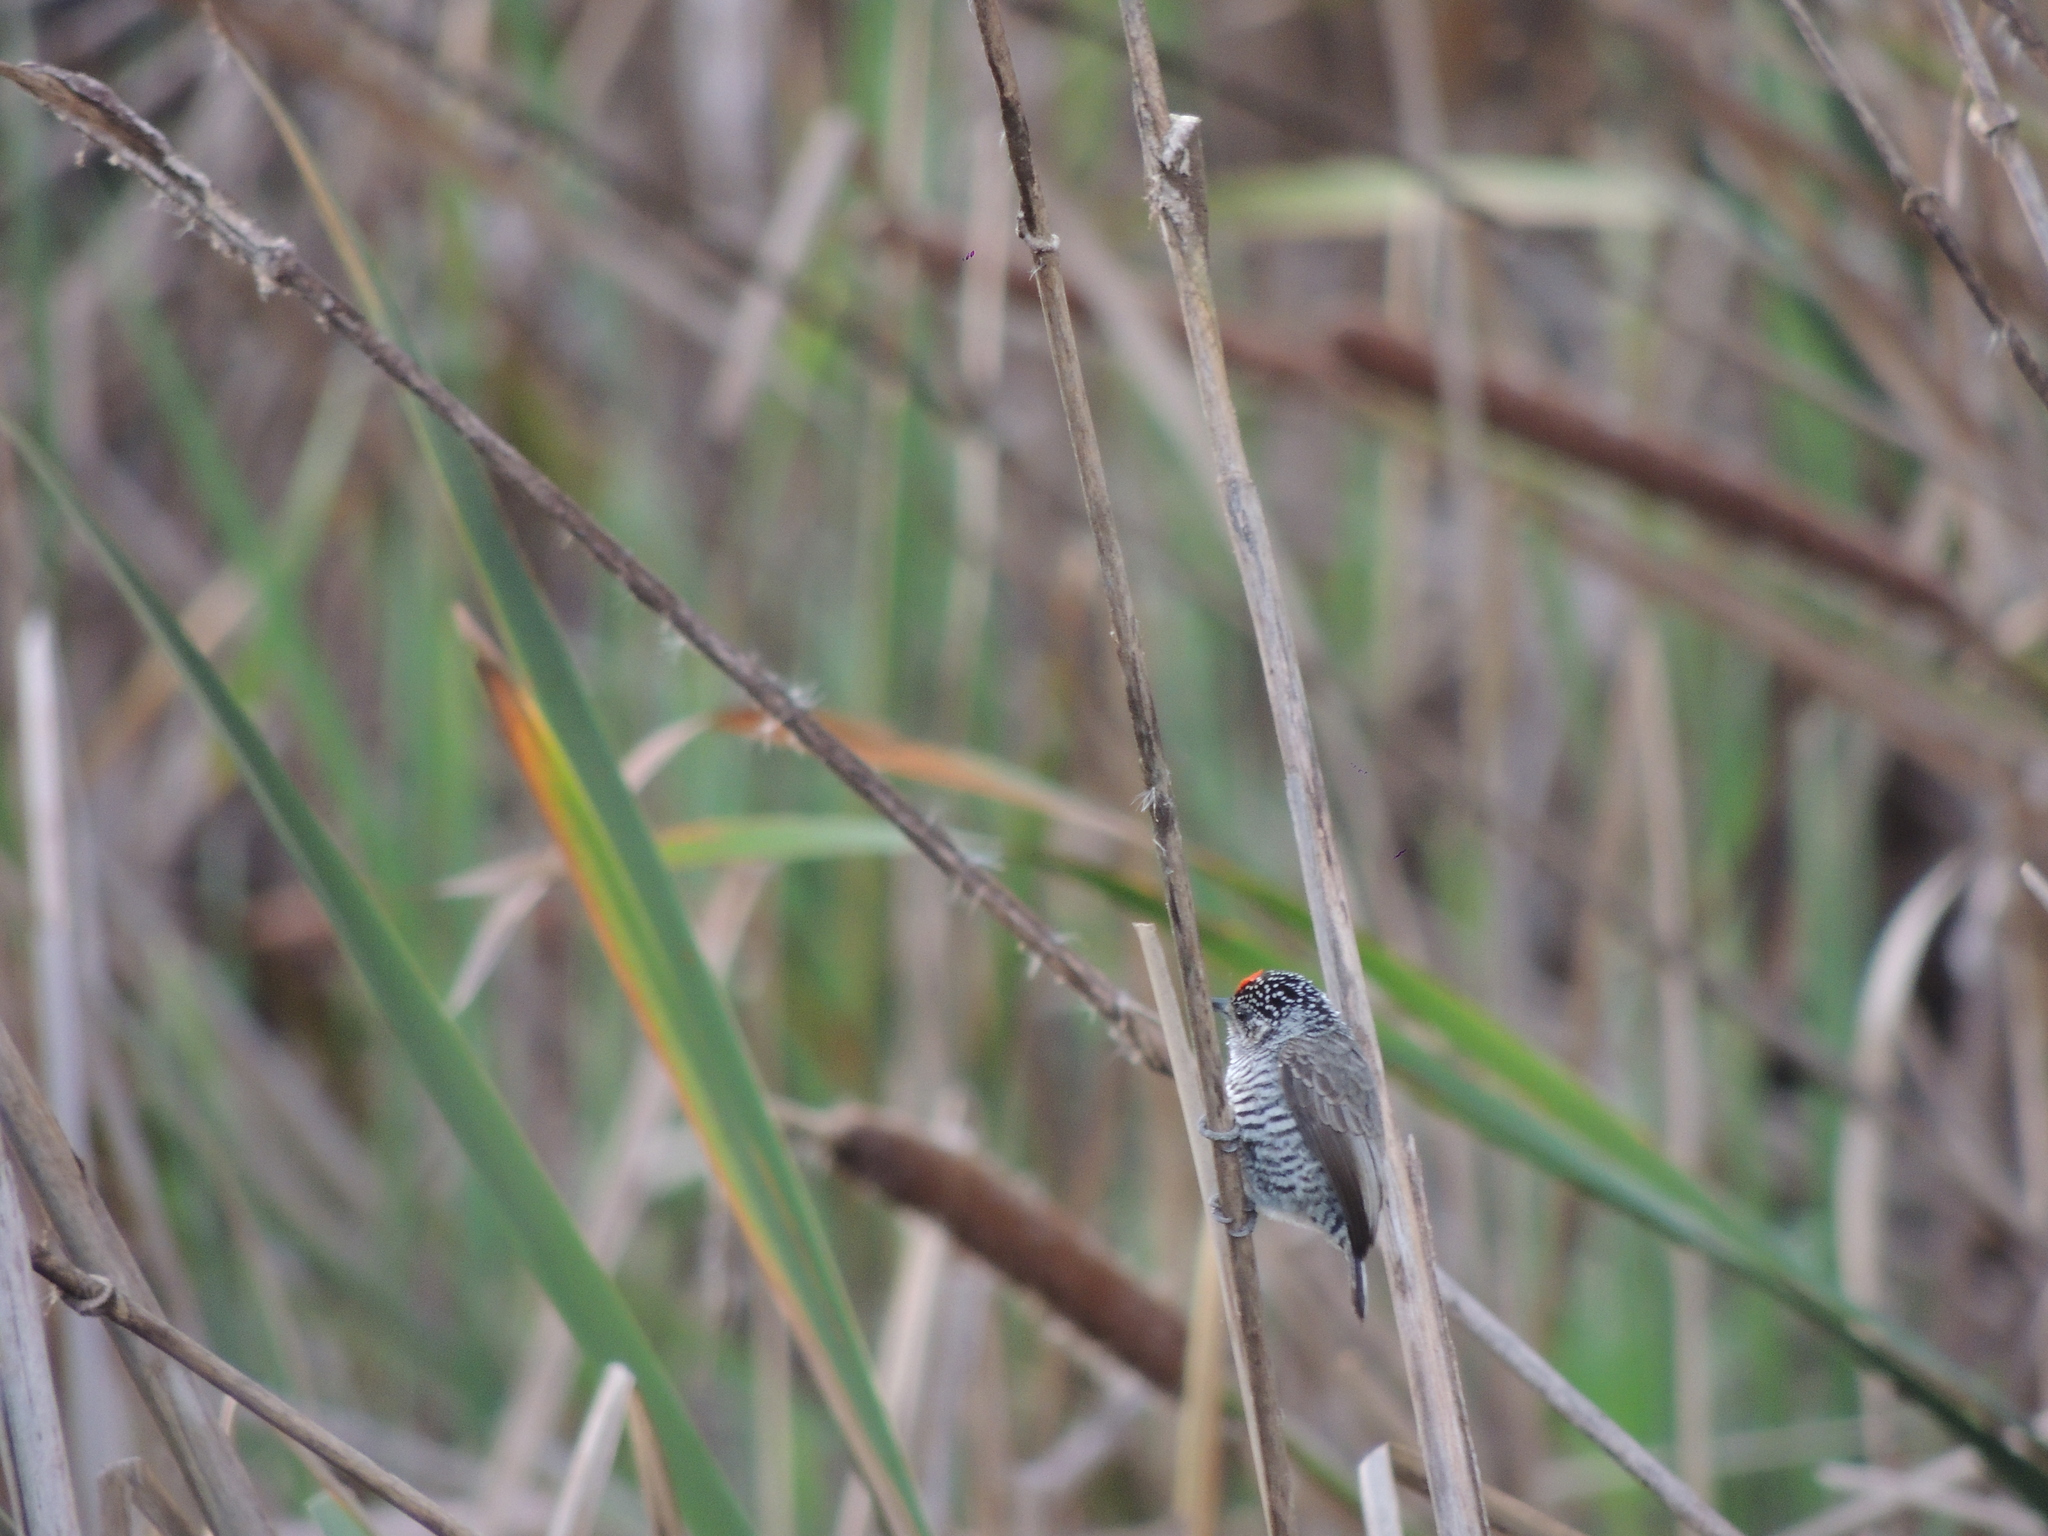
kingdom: Animalia
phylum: Chordata
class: Aves
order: Piciformes
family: Picidae
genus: Picumnus
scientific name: Picumnus cirratus
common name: White-barred piculet
